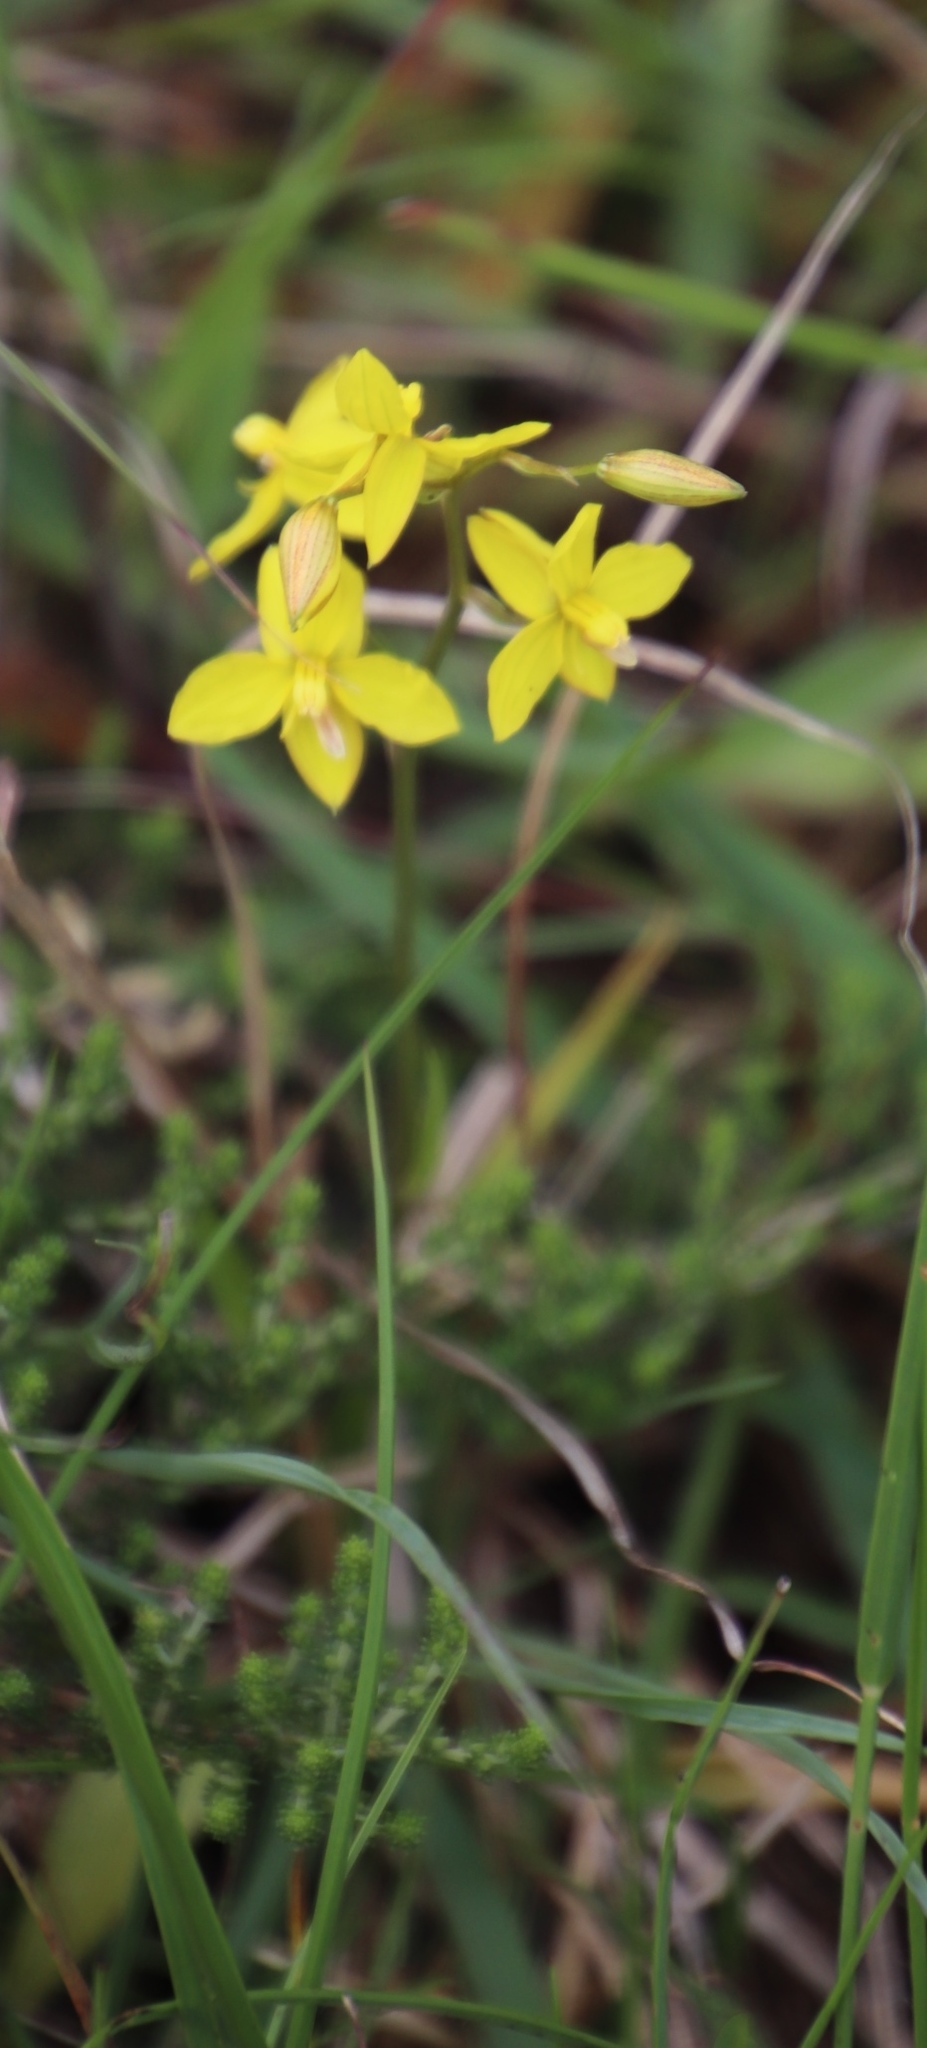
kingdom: Plantae
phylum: Tracheophyta
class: Liliopsida
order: Asparagales
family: Tecophilaeaceae
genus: Cyanella
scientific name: Cyanella lutea
